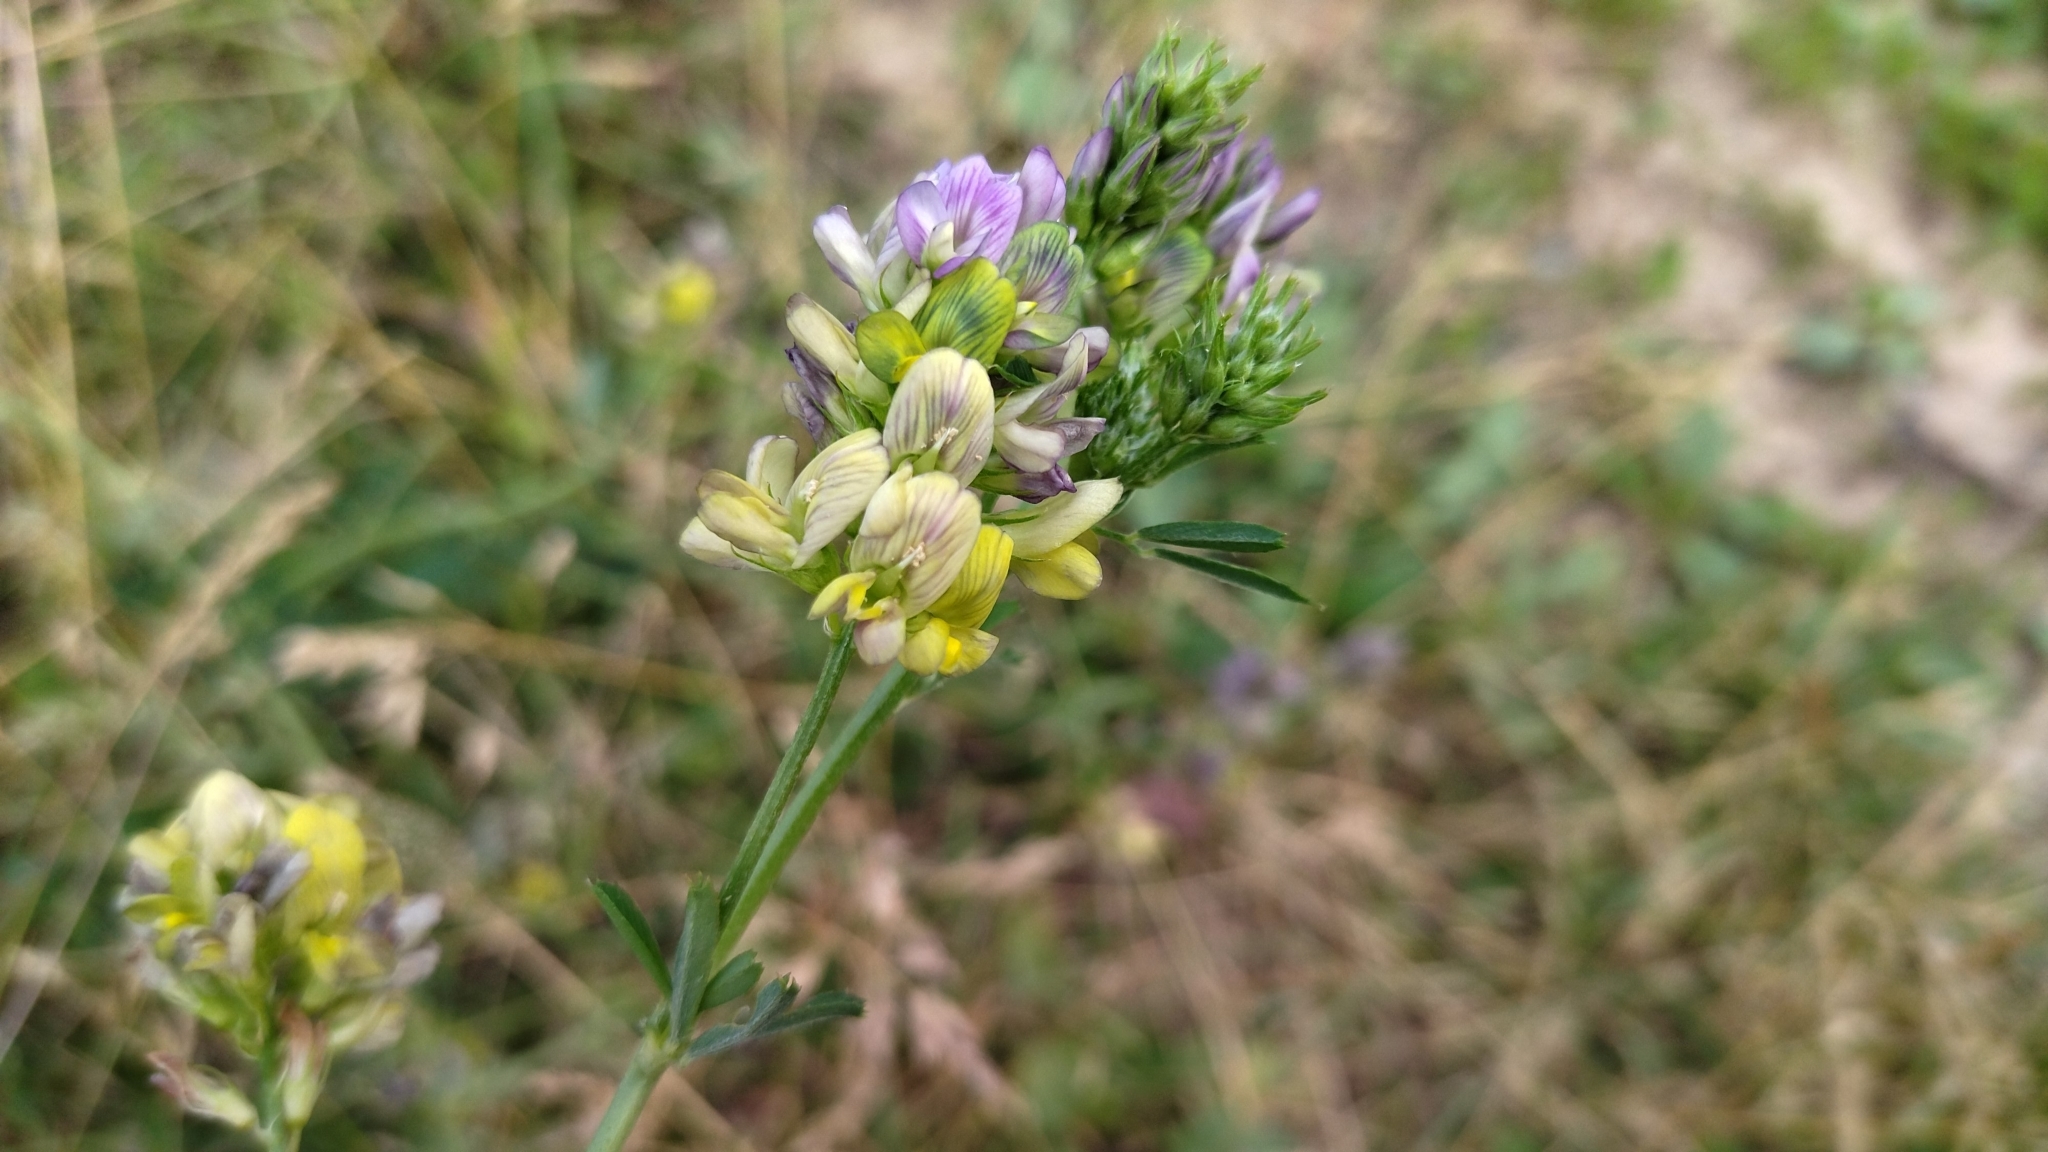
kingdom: Plantae
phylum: Tracheophyta
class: Magnoliopsida
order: Fabales
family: Fabaceae
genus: Medicago
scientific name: Medicago varia
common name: Sand lucerne
